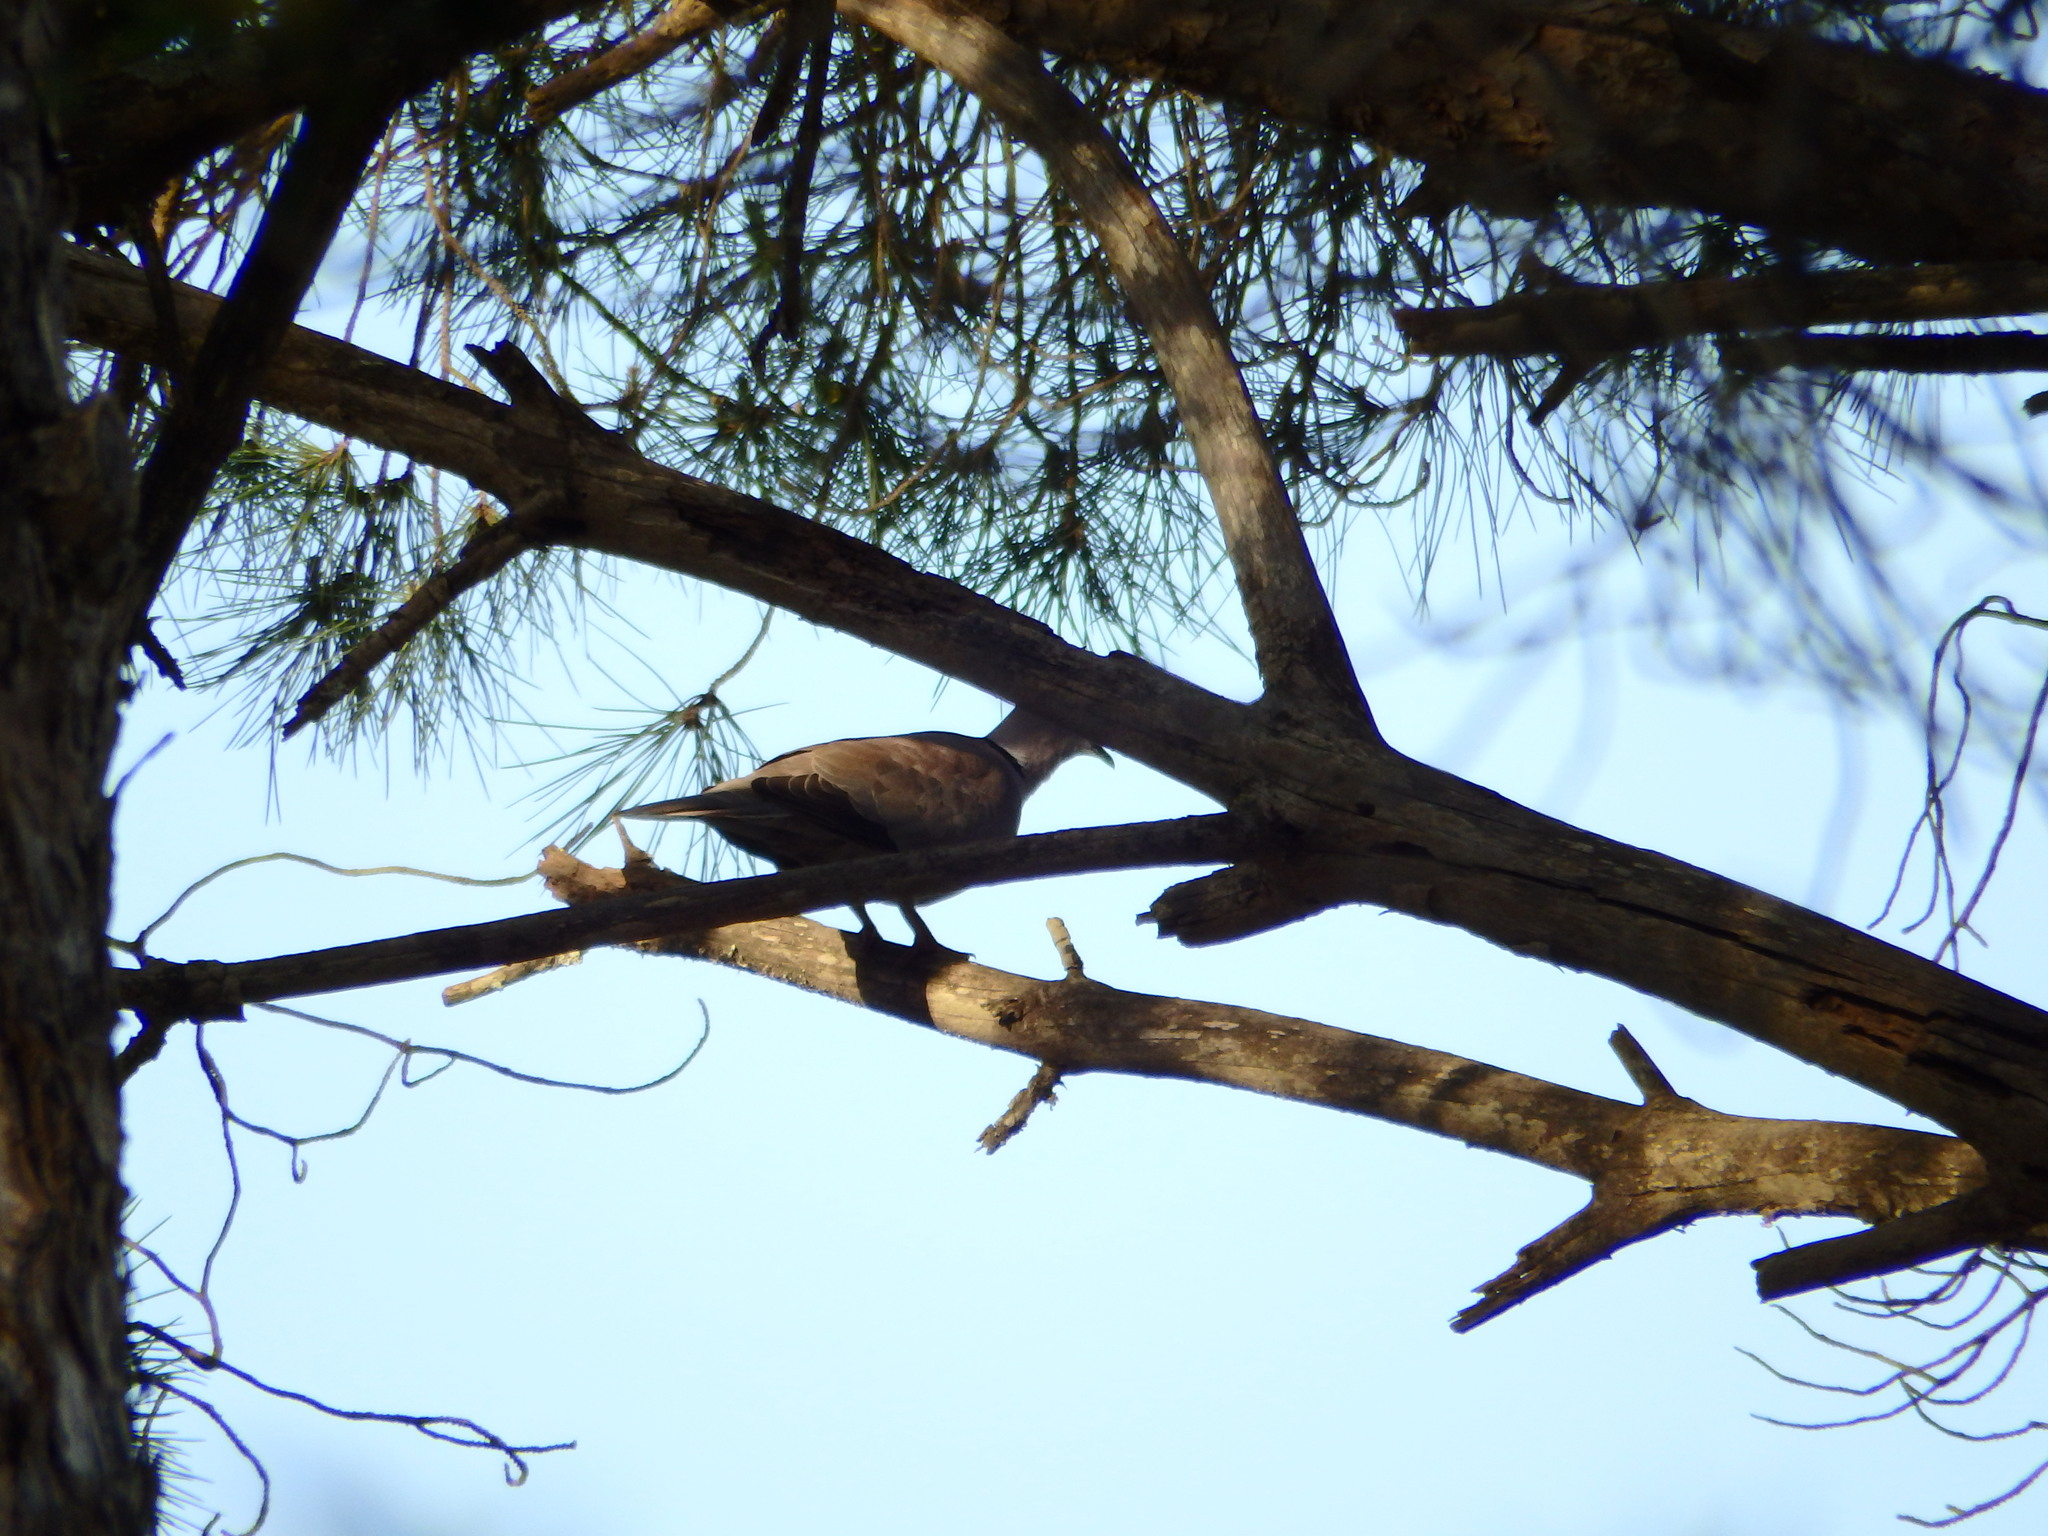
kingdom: Animalia
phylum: Chordata
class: Aves
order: Columbiformes
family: Columbidae
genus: Streptopelia
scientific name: Streptopelia decaocto
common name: Eurasian collared dove
